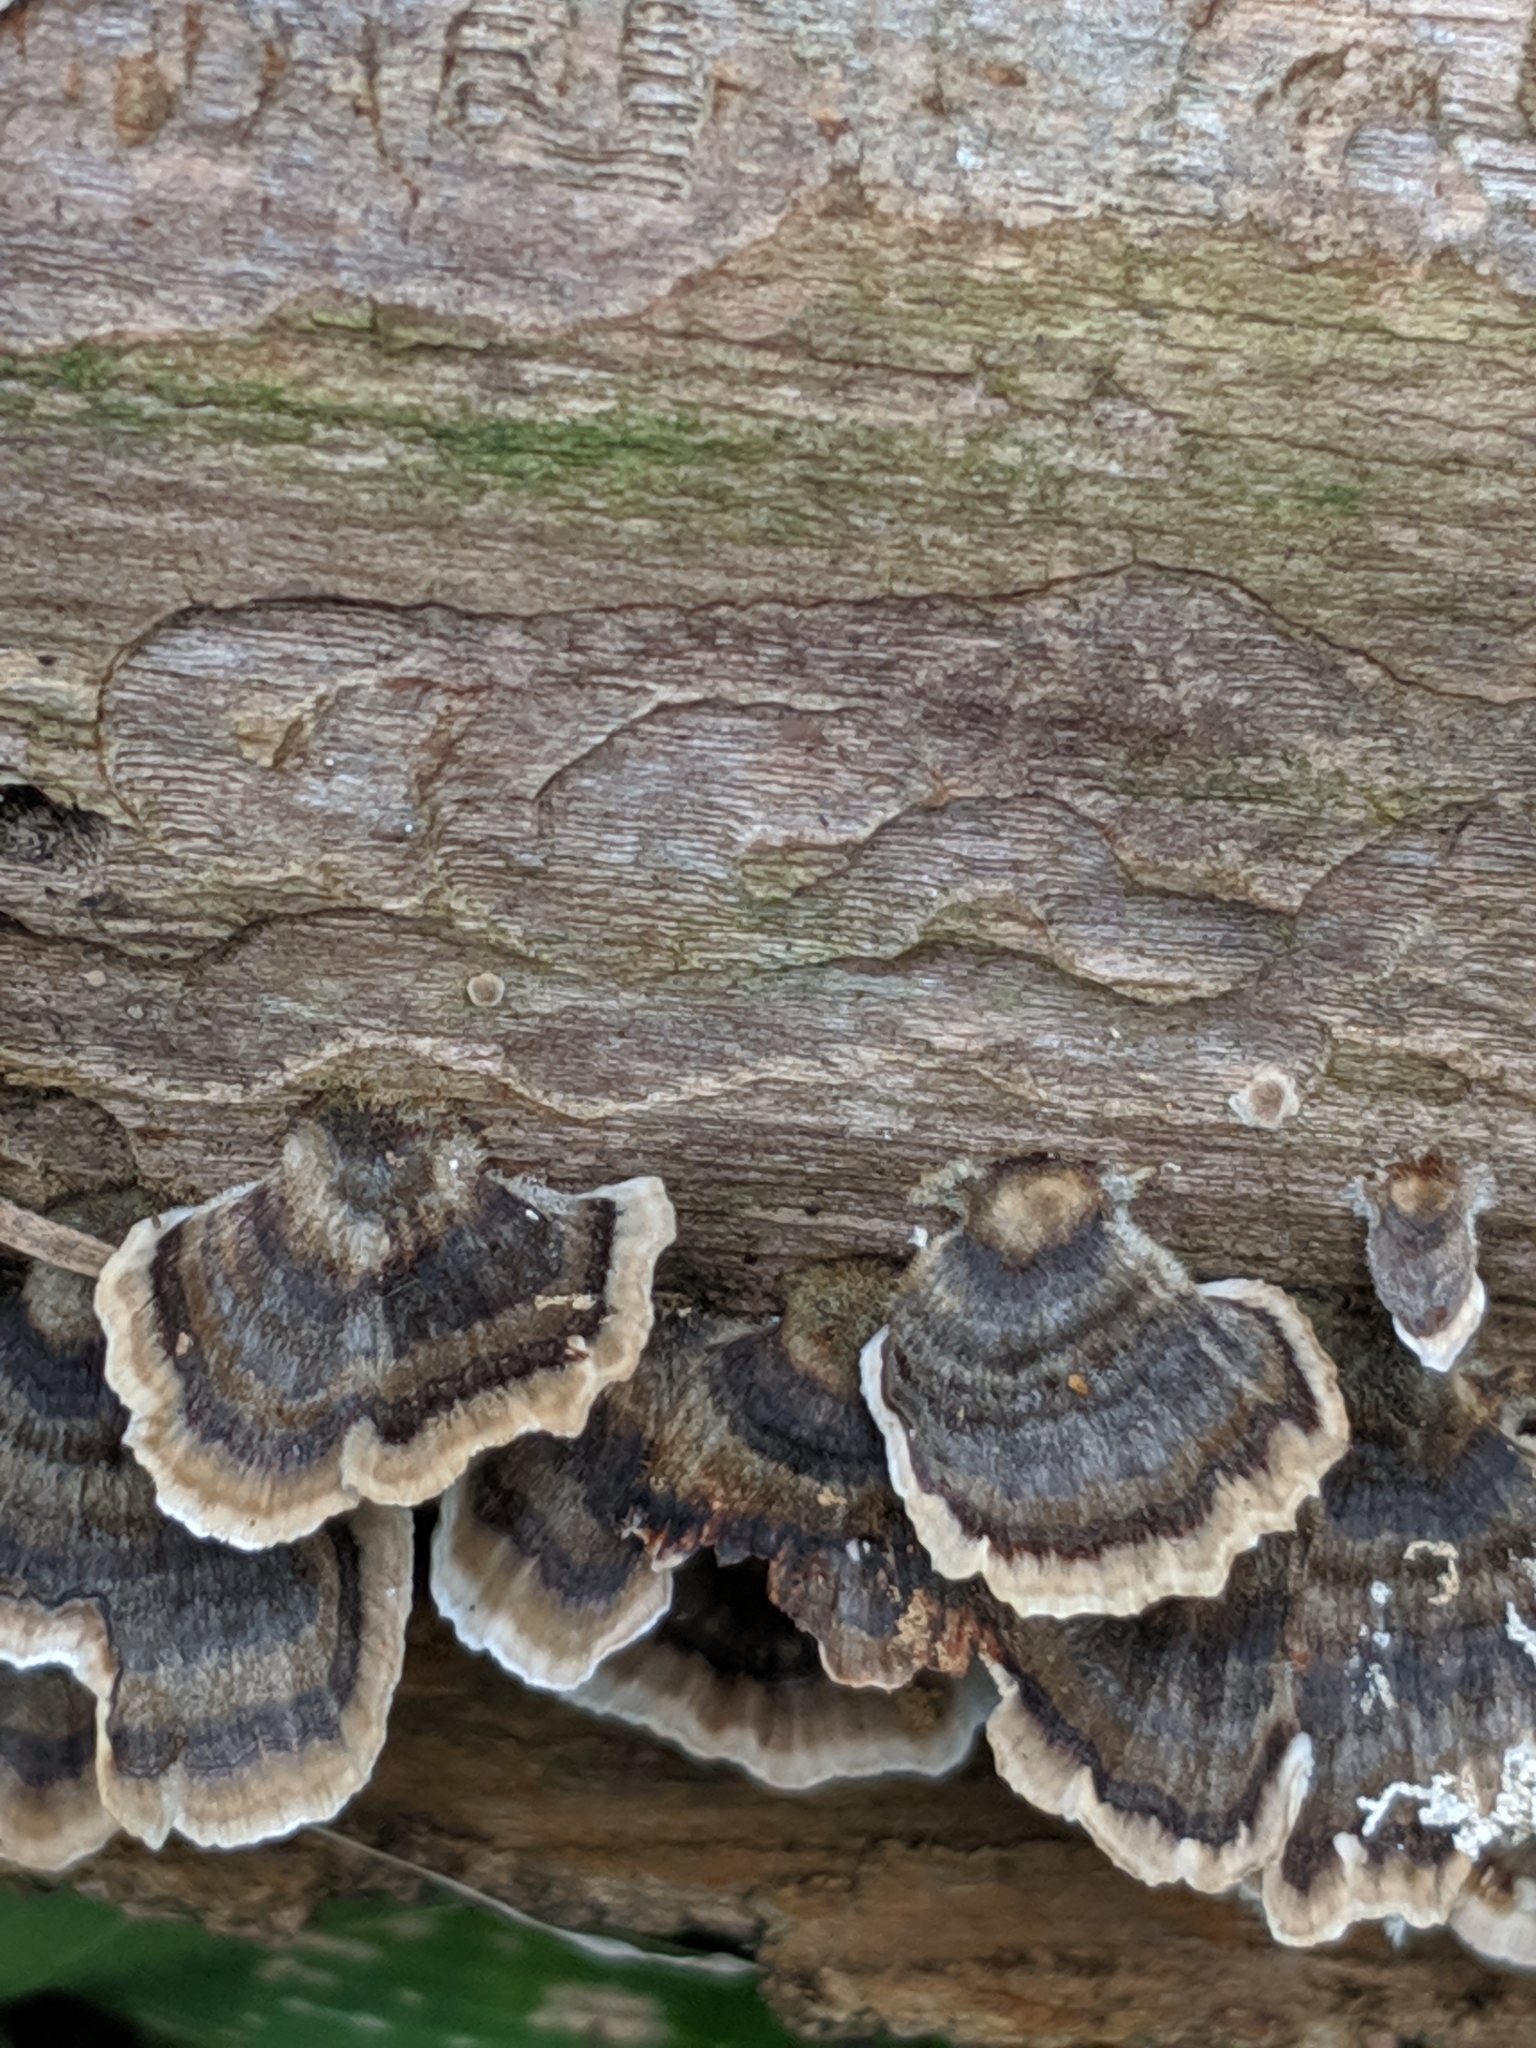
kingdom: Fungi
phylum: Basidiomycota
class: Agaricomycetes
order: Polyporales
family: Polyporaceae
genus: Trametes
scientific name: Trametes versicolor
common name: Turkeytail
